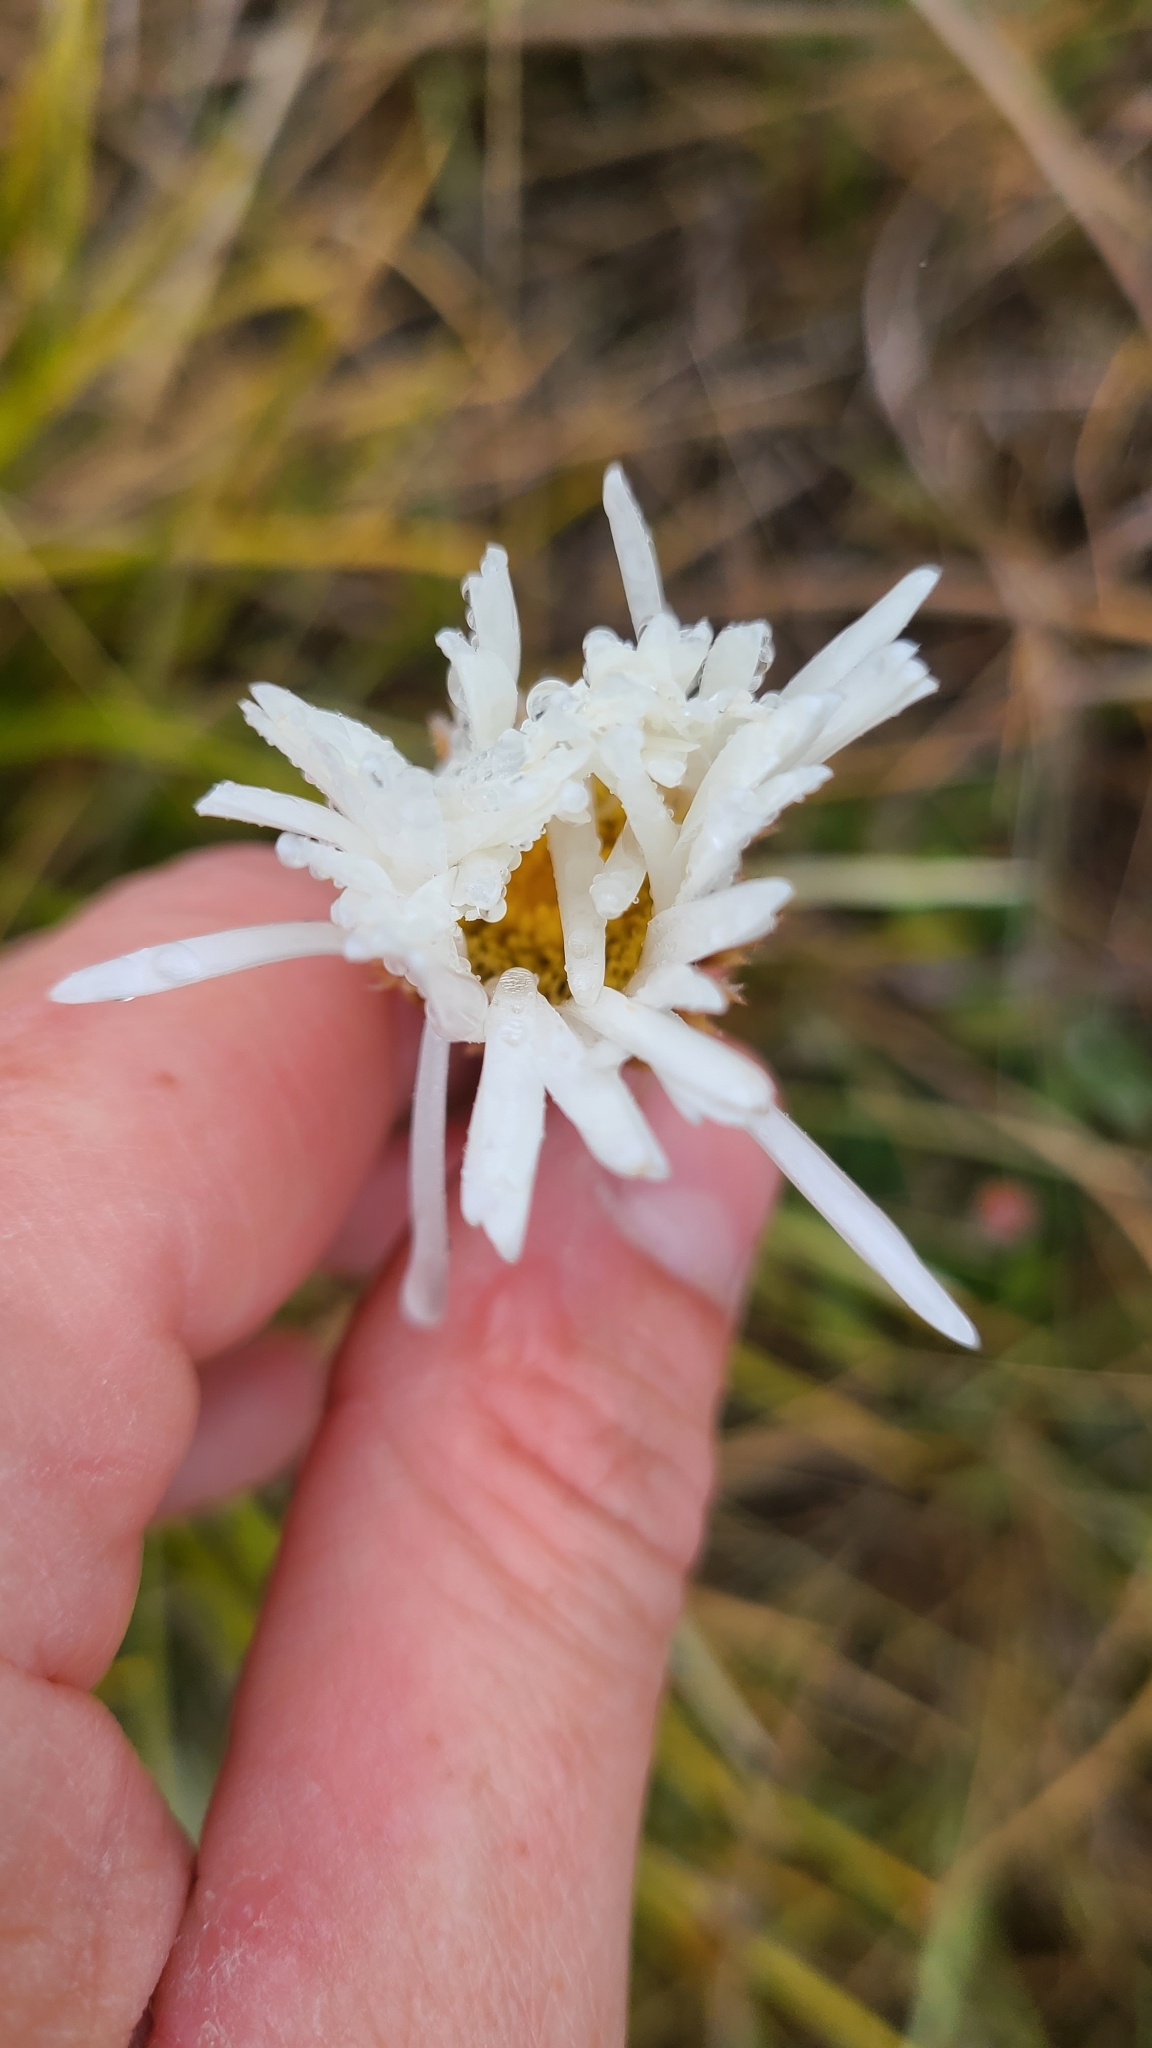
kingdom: Plantae
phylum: Tracheophyta
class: Magnoliopsida
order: Asterales
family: Asteraceae
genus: Celmisia
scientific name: Celmisia lyallii
